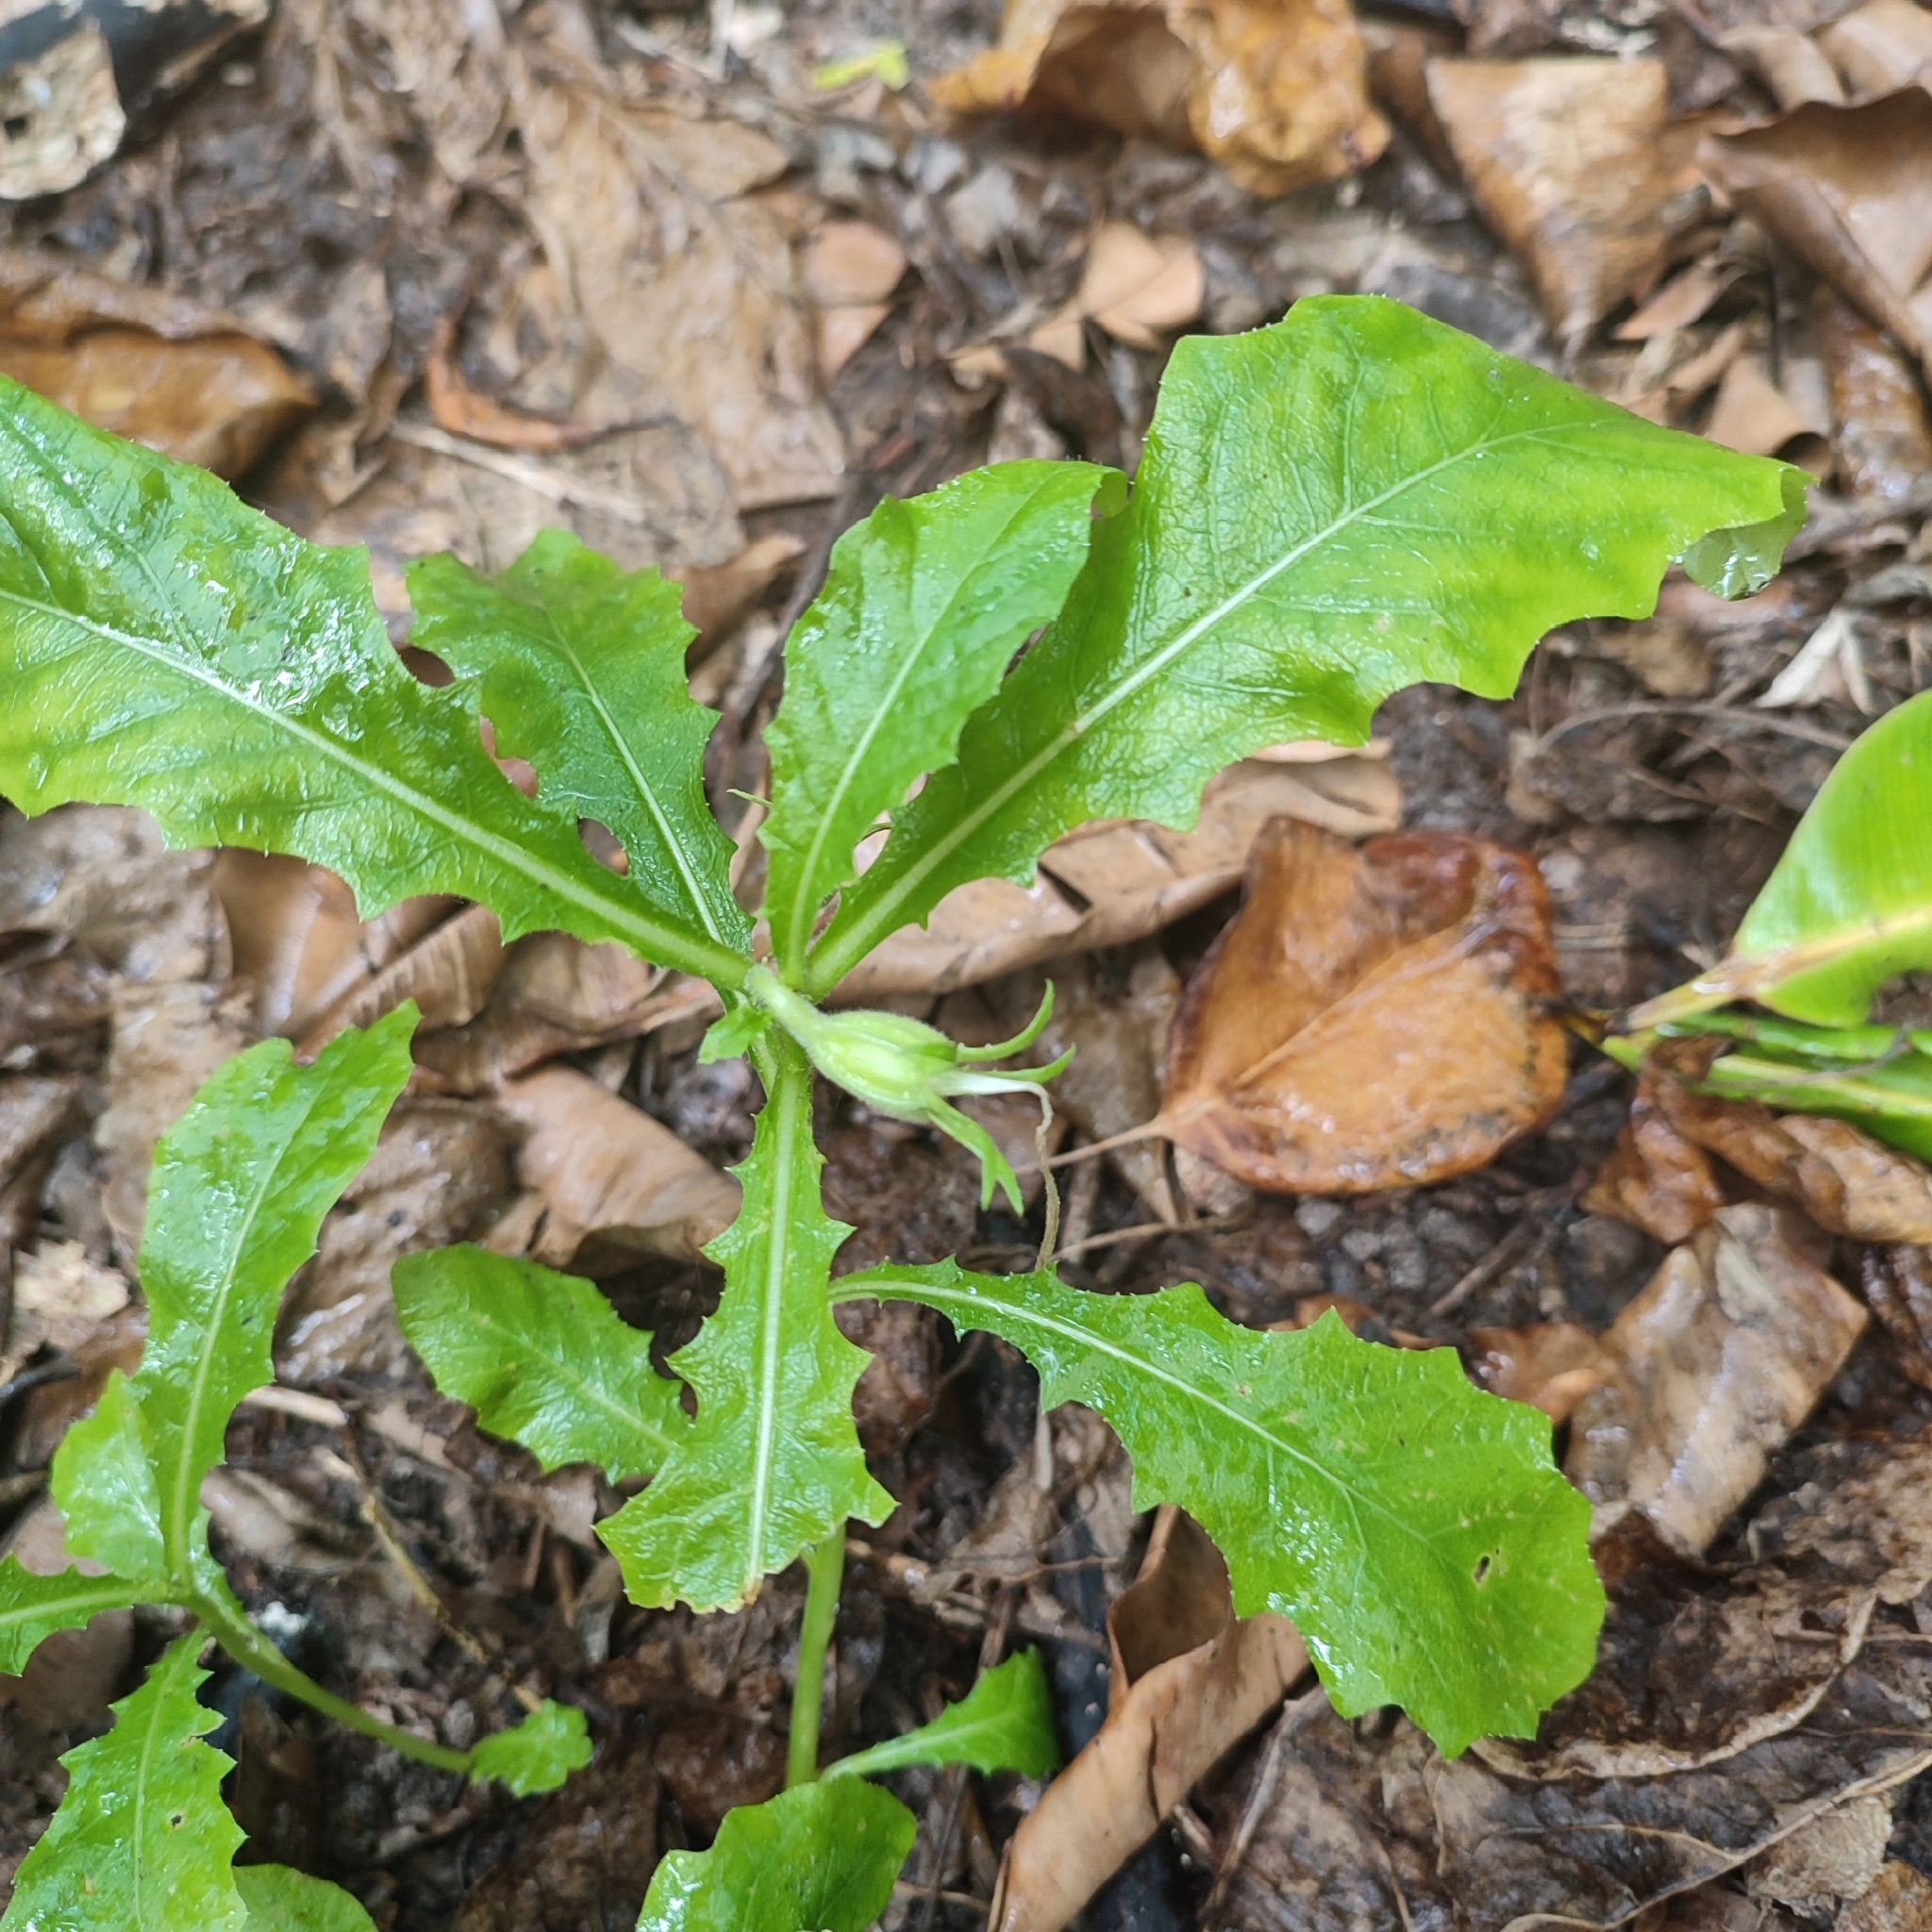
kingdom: Plantae
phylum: Tracheophyta
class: Magnoliopsida
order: Asterales
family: Campanulaceae
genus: Hippobroma
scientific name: Hippobroma longiflora
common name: Madamfate
